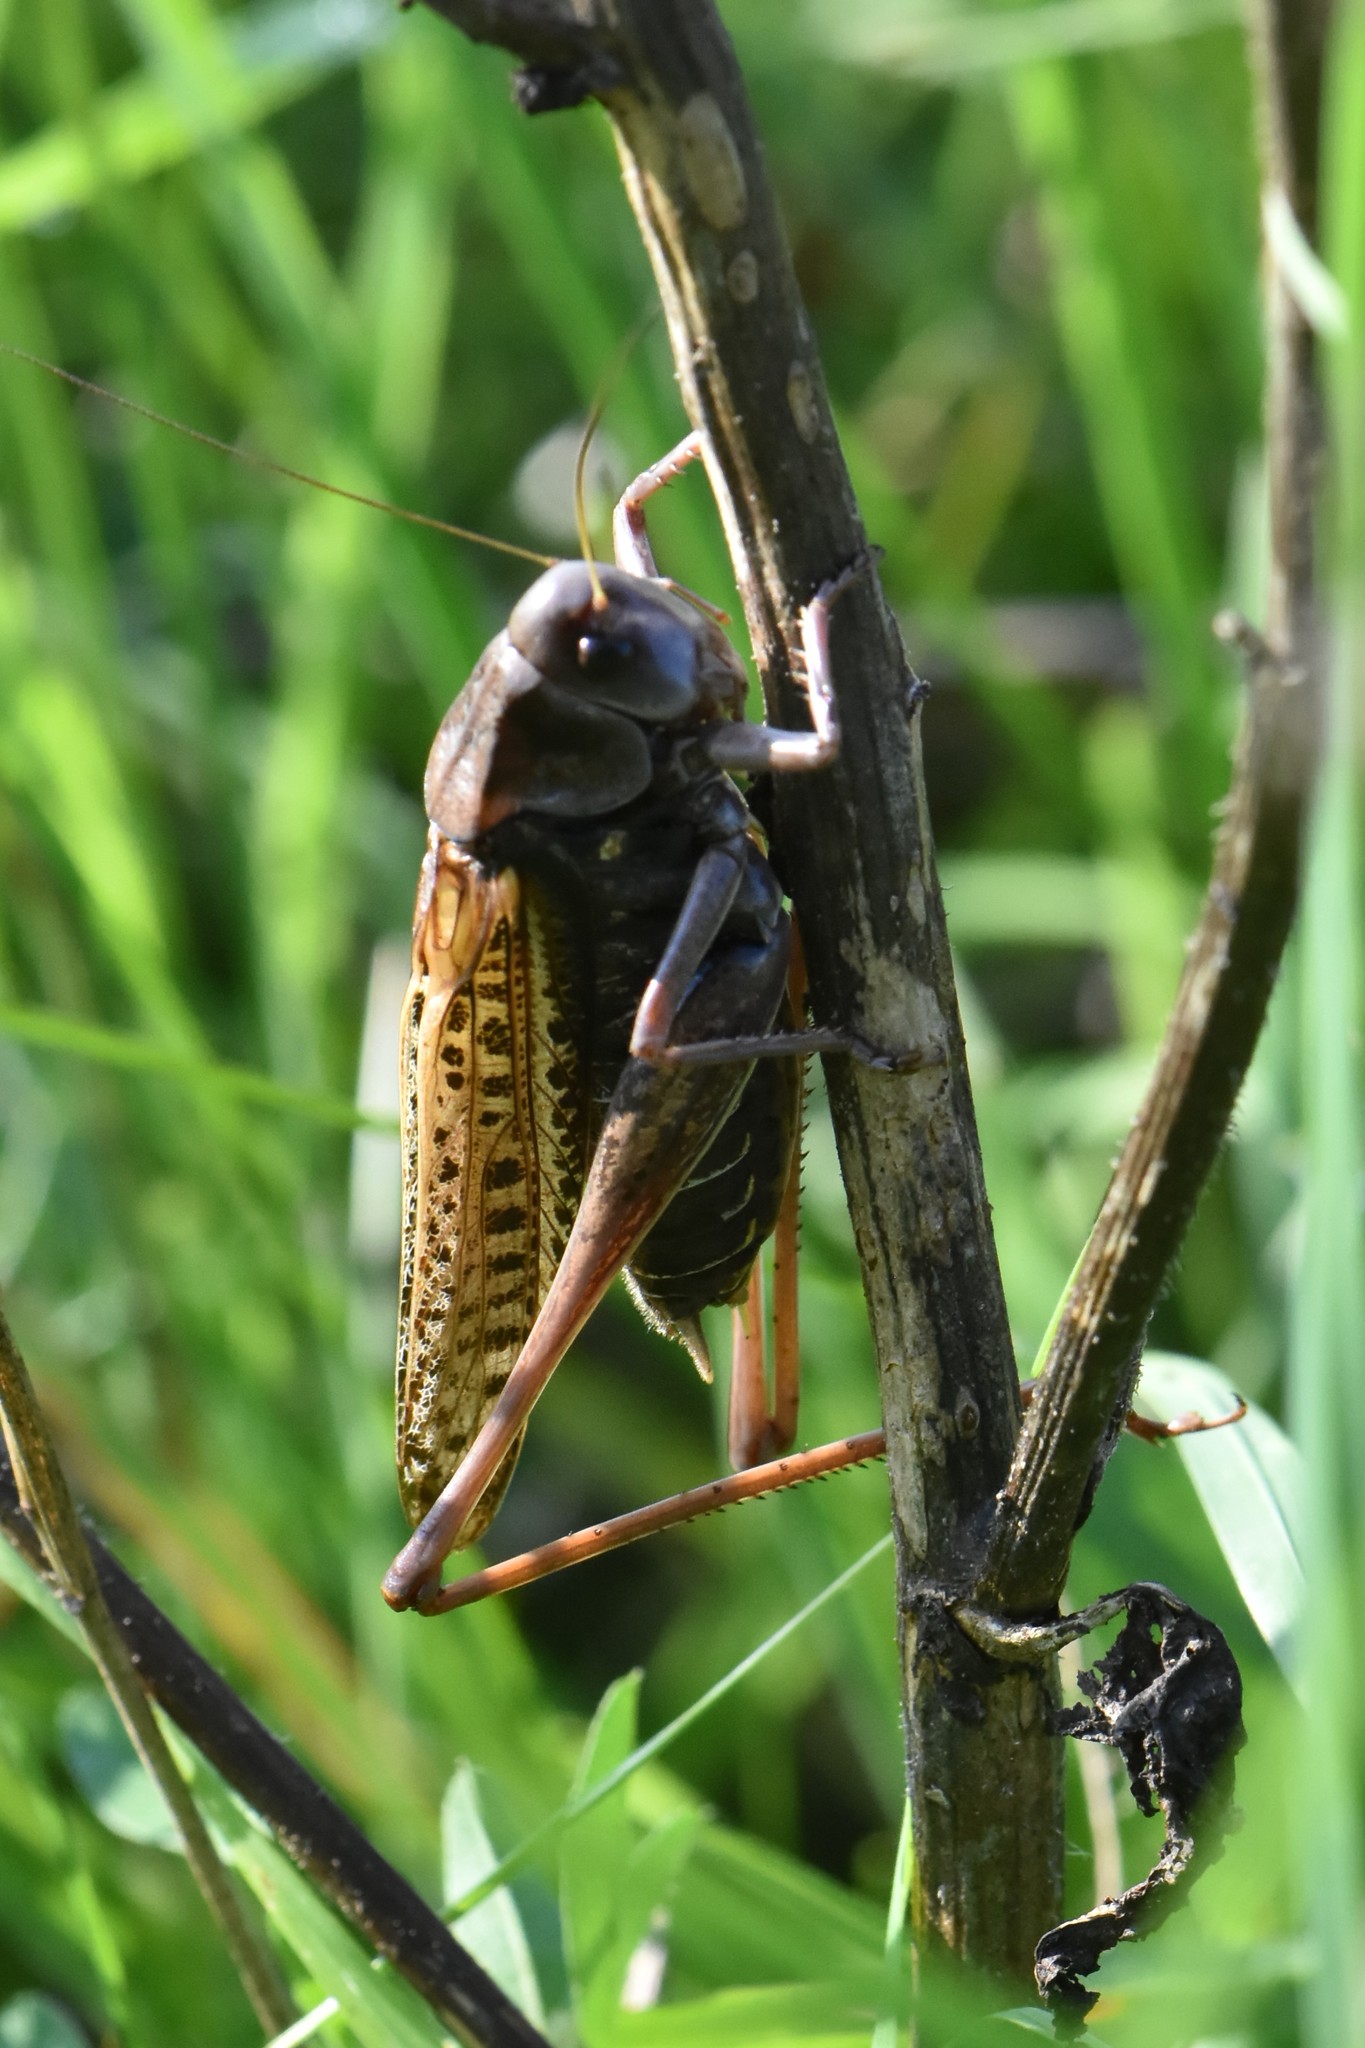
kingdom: Animalia
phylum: Arthropoda
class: Insecta
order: Orthoptera
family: Tettigoniidae
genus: Decticus
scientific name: Decticus verrucivorus
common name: Wart-biter
